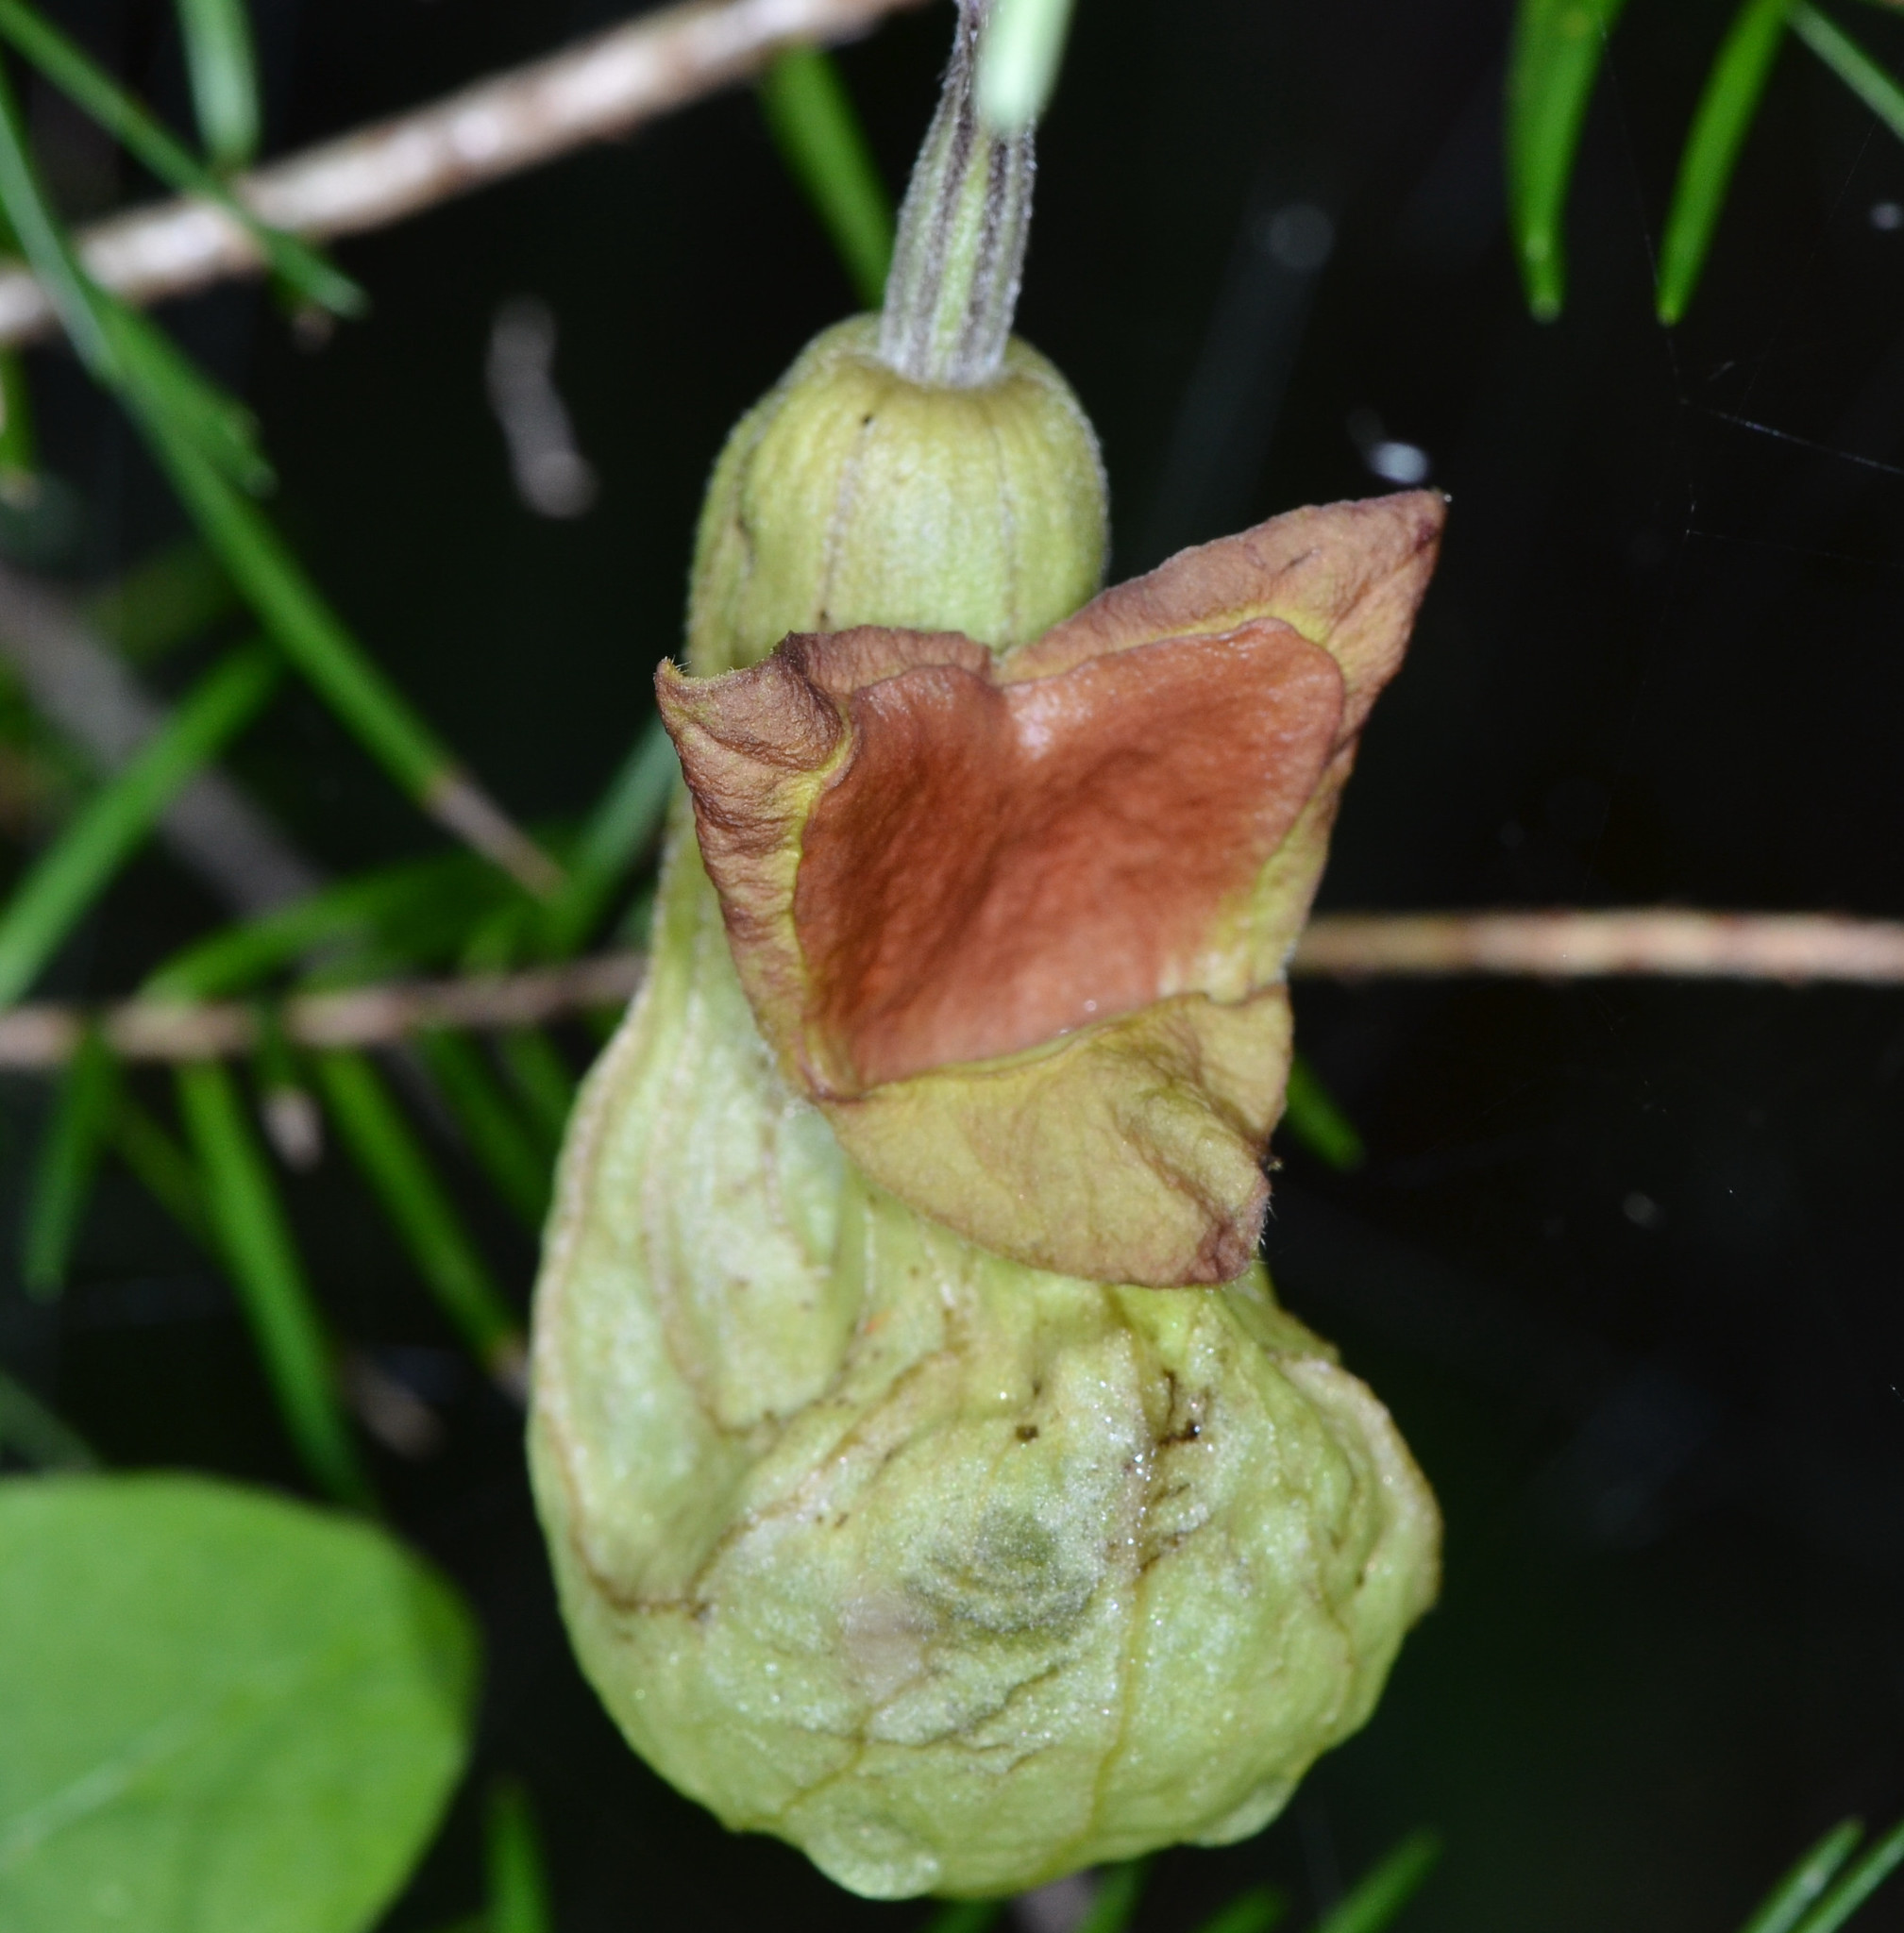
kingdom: Plantae
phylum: Tracheophyta
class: Magnoliopsida
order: Piperales
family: Aristolochiaceae
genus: Isotrema
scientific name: Isotrema californicum
